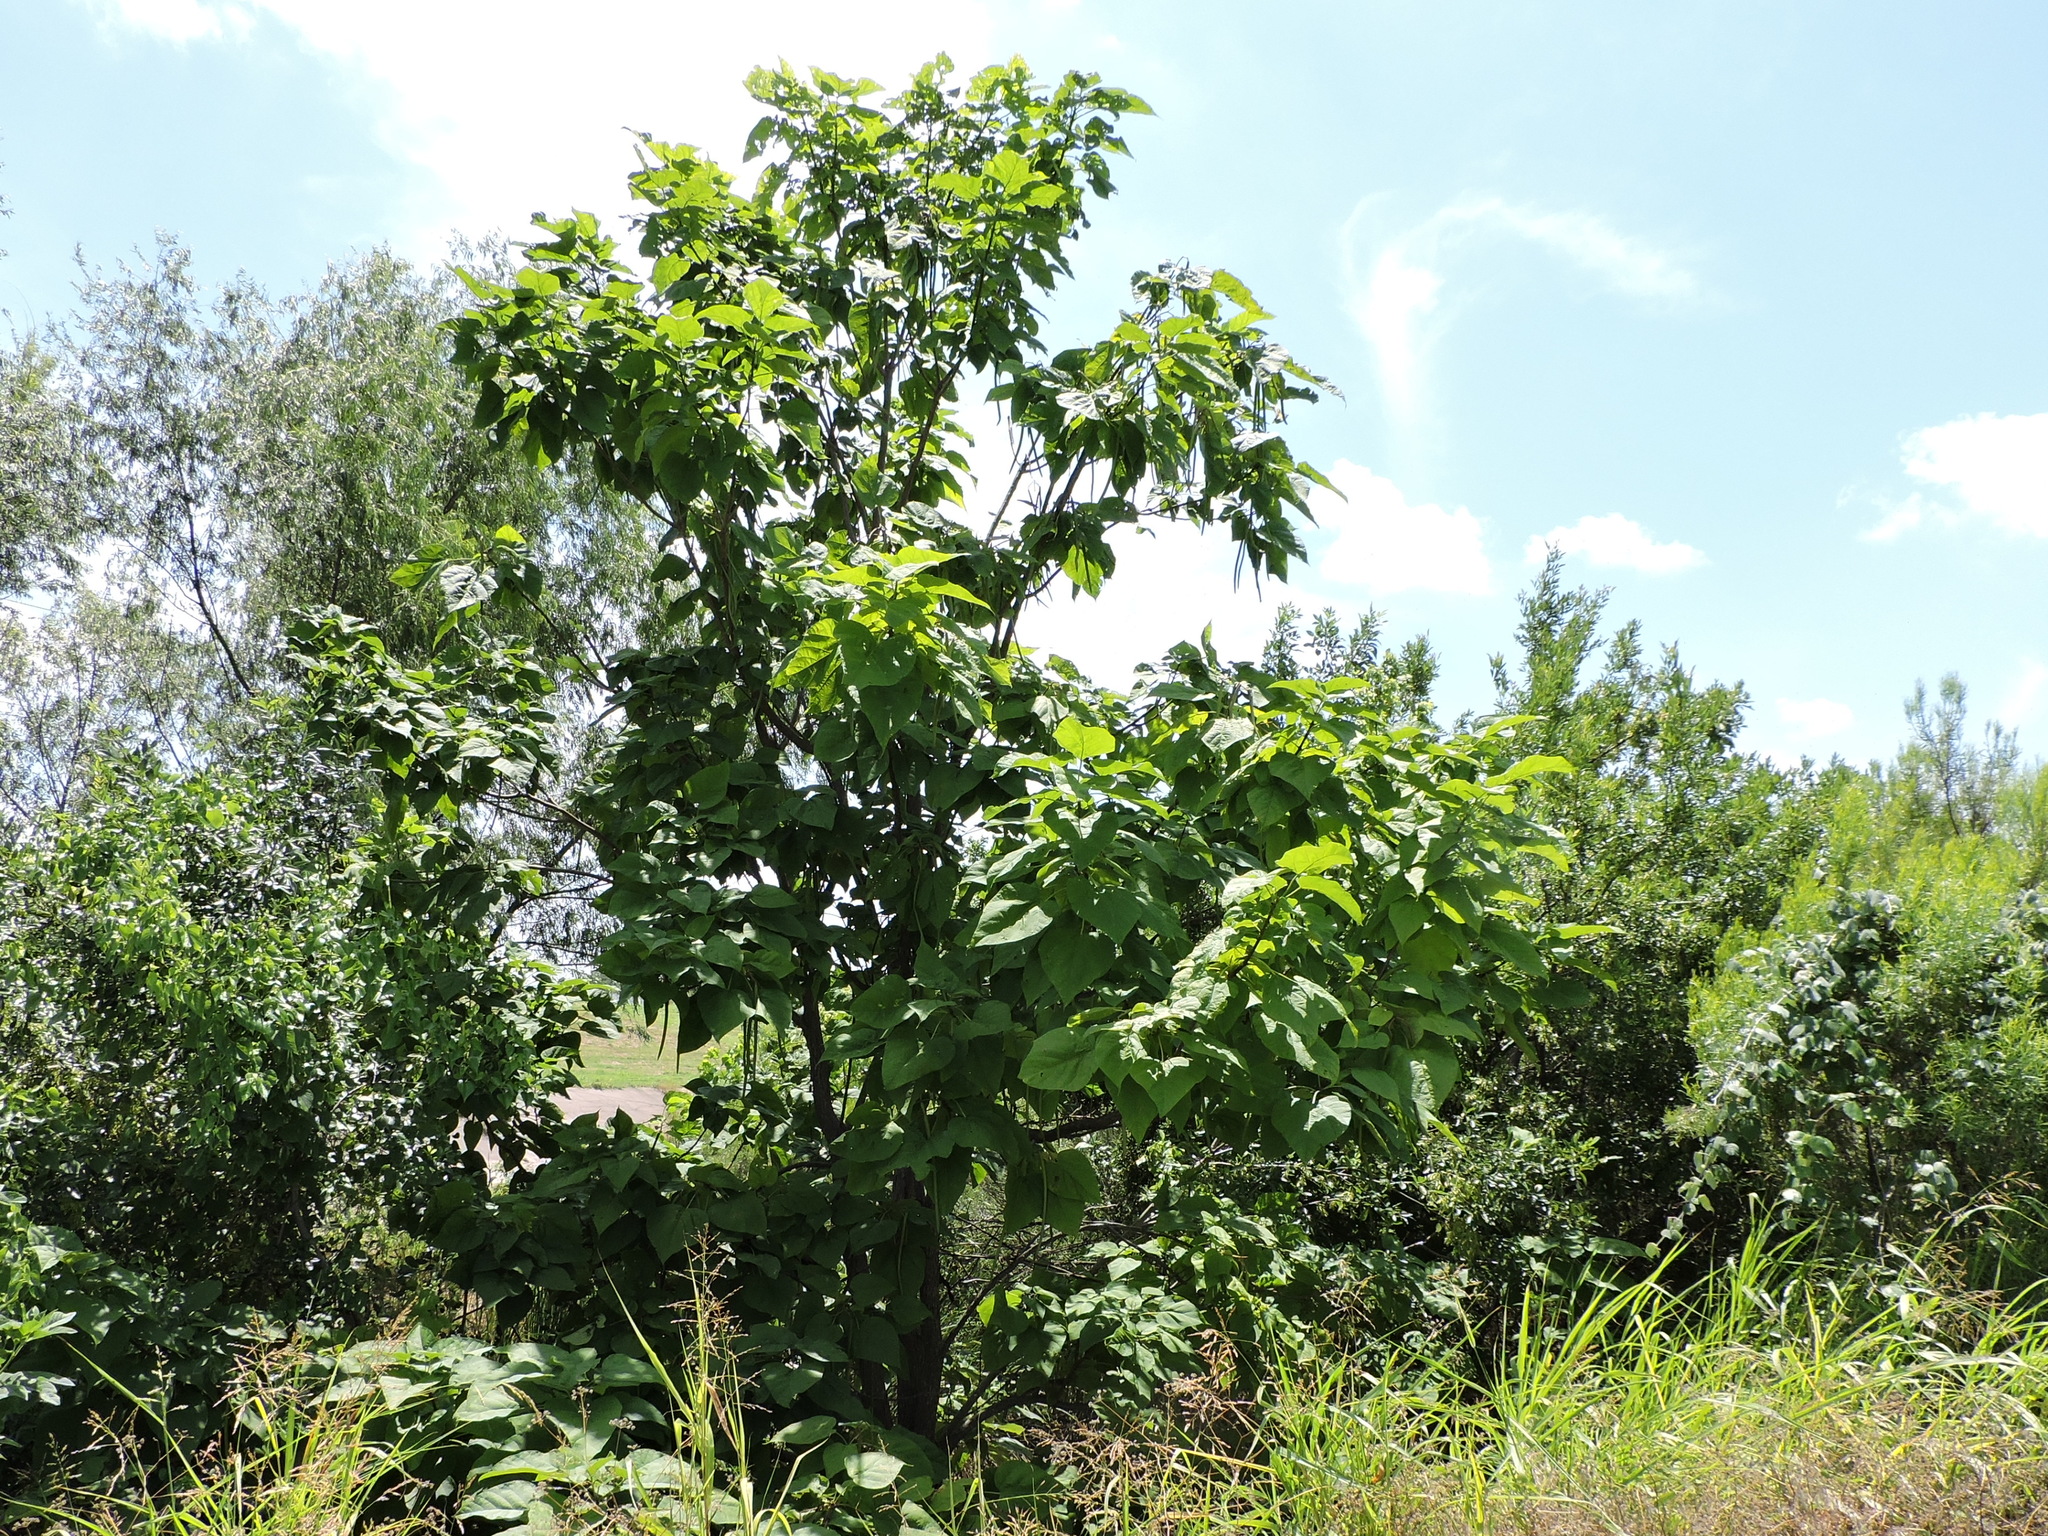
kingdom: Plantae
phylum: Tracheophyta
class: Magnoliopsida
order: Lamiales
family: Bignoniaceae
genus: Catalpa
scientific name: Catalpa speciosa
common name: Northern catalpa
